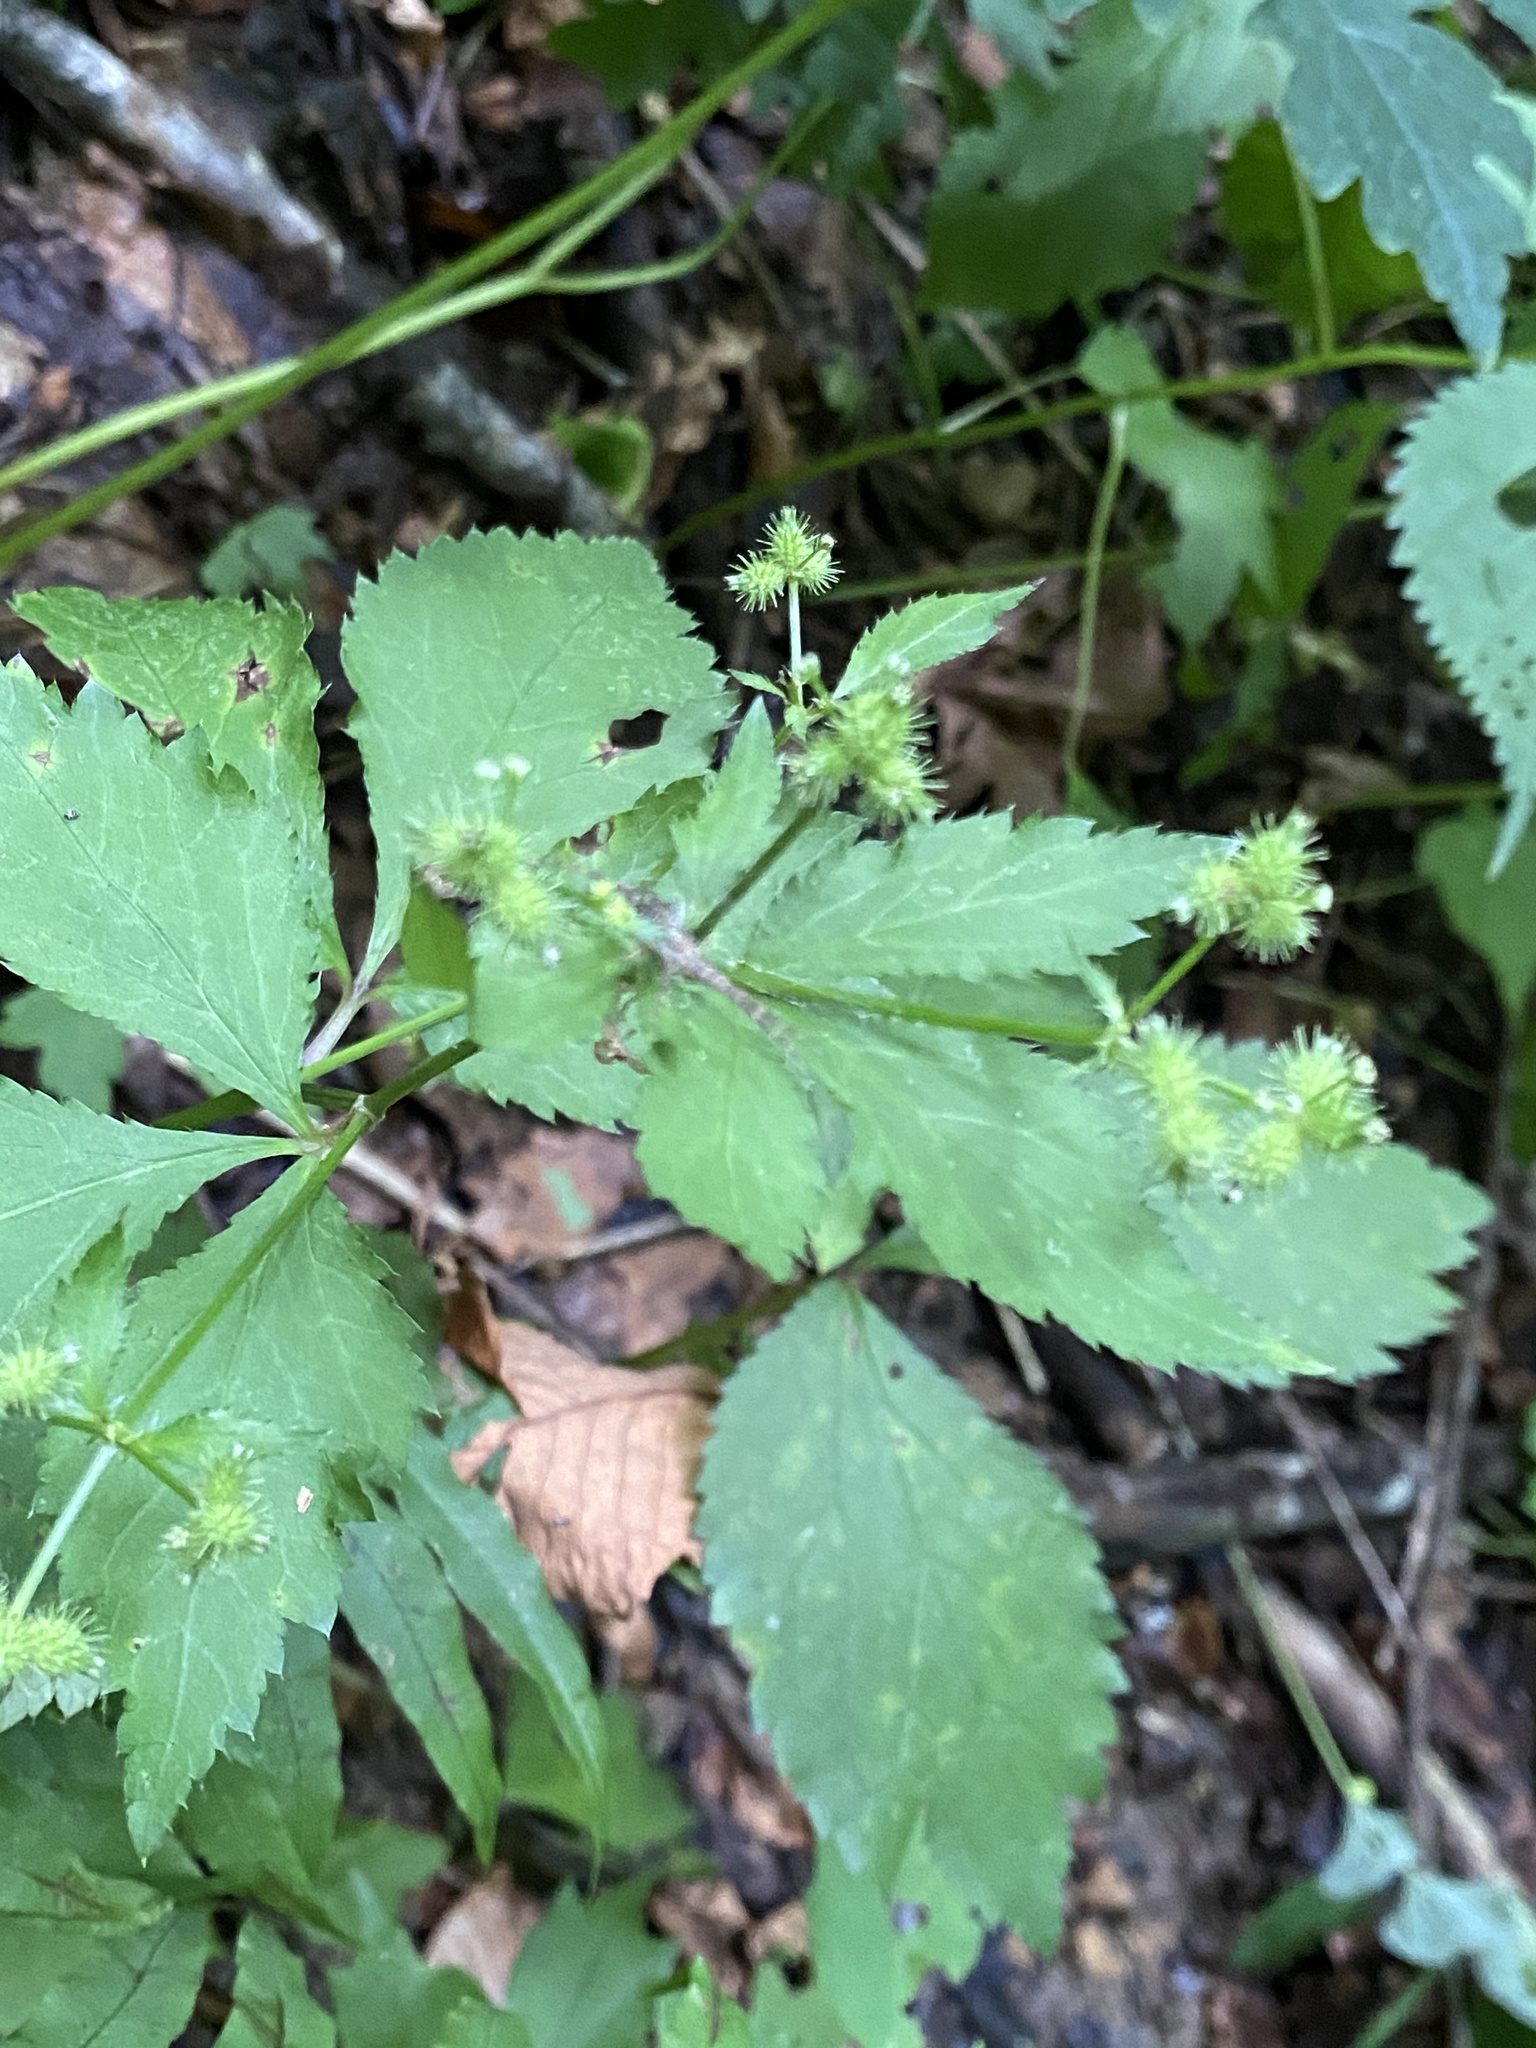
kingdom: Plantae
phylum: Tracheophyta
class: Magnoliopsida
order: Apiales
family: Apiaceae
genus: Sanicula
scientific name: Sanicula trifoliata
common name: Beaked sanicle
